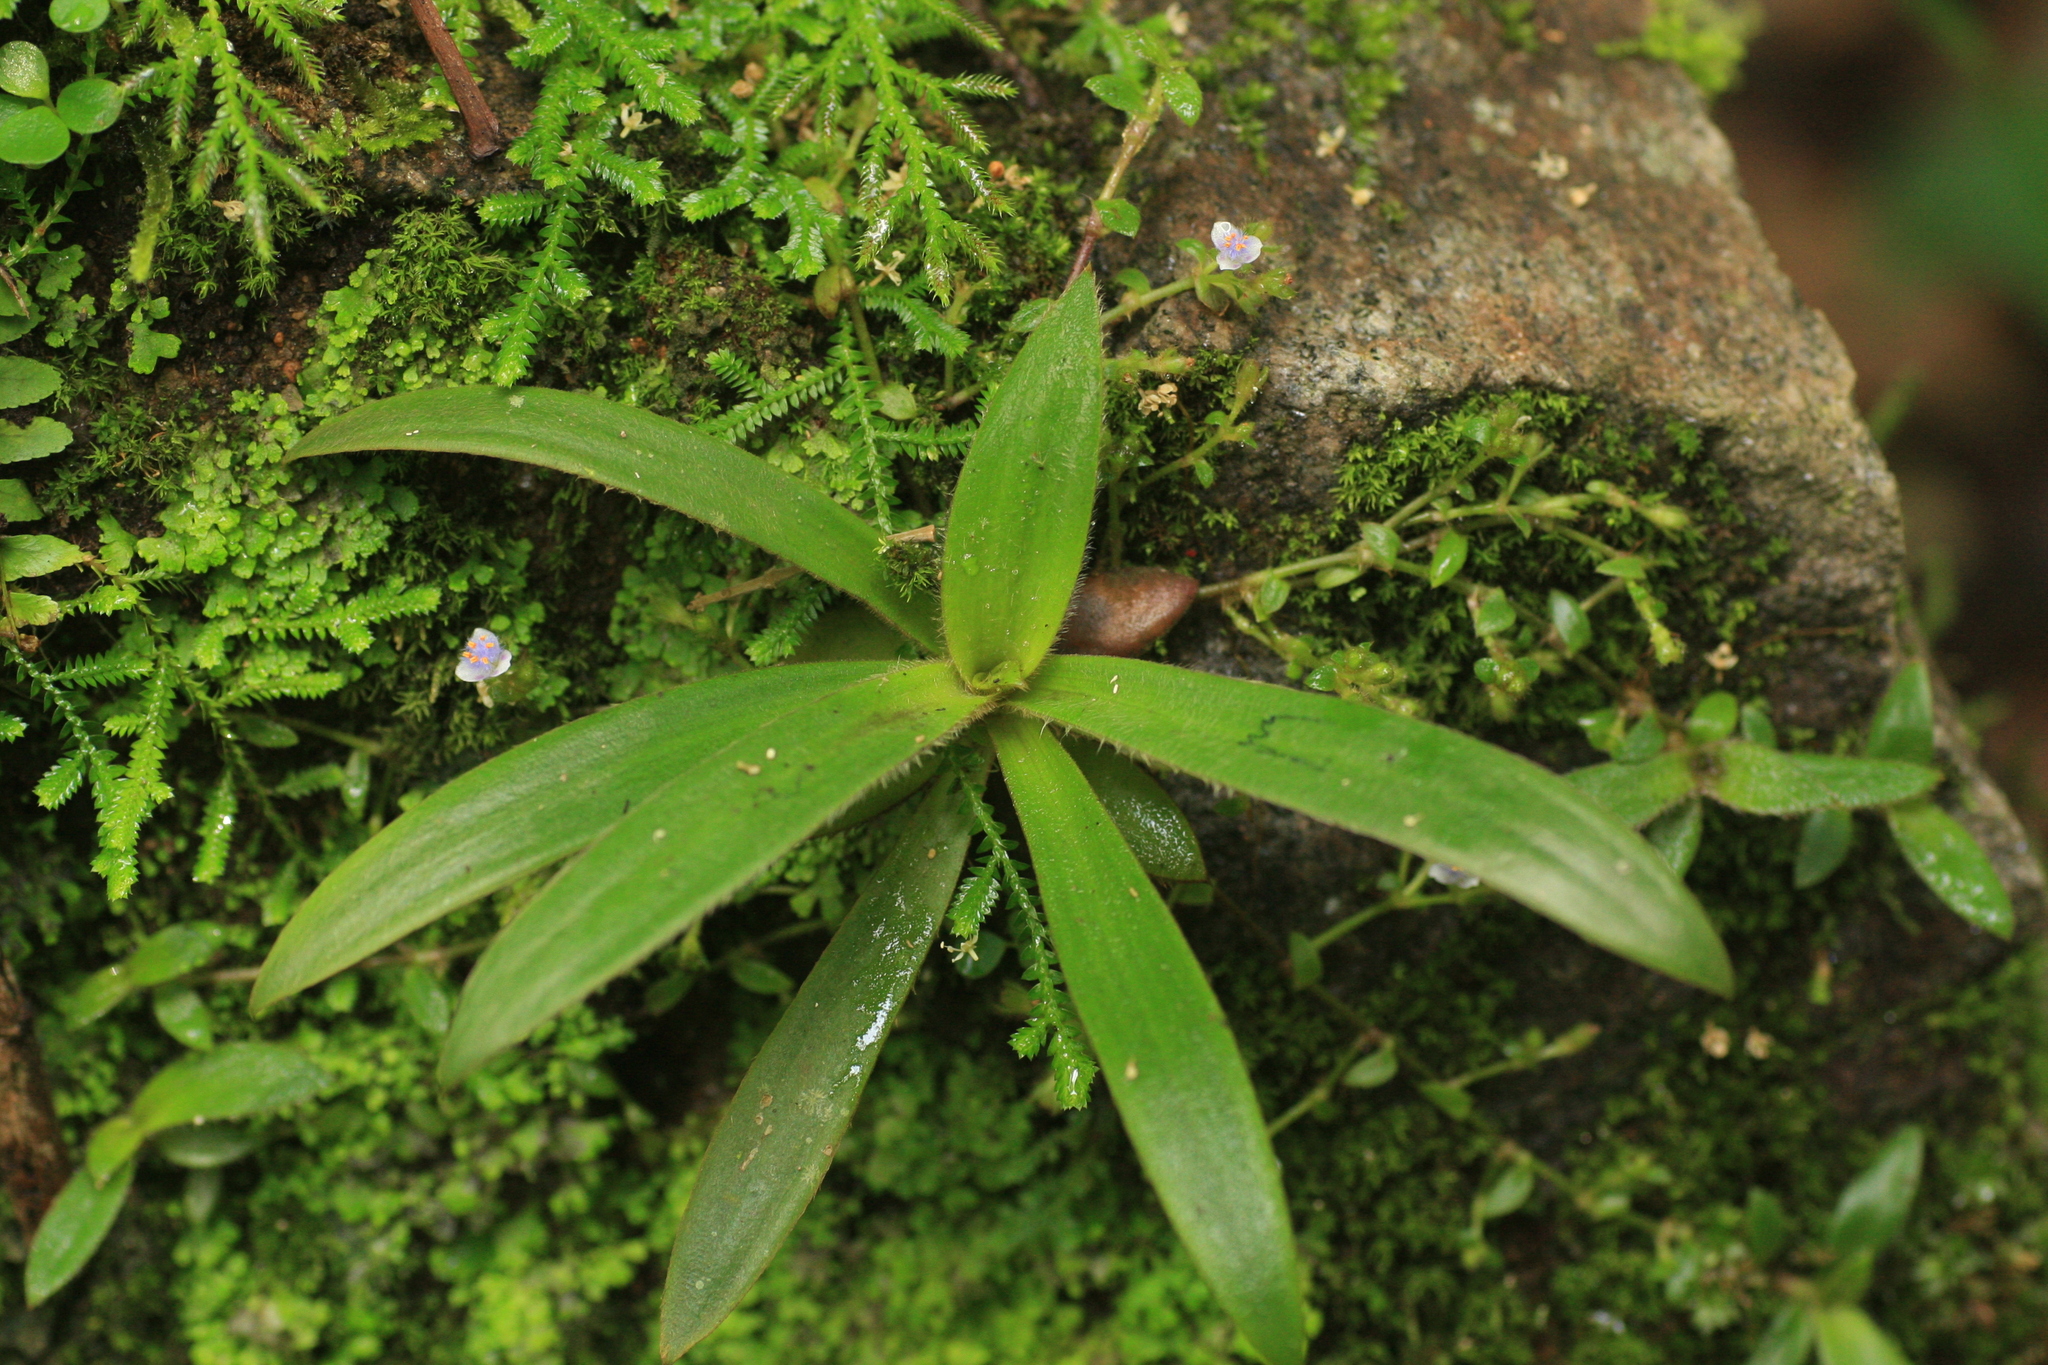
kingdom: Plantae
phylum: Tracheophyta
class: Liliopsida
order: Commelinales
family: Commelinaceae
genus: Cyanotis
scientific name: Cyanotis vivipara
